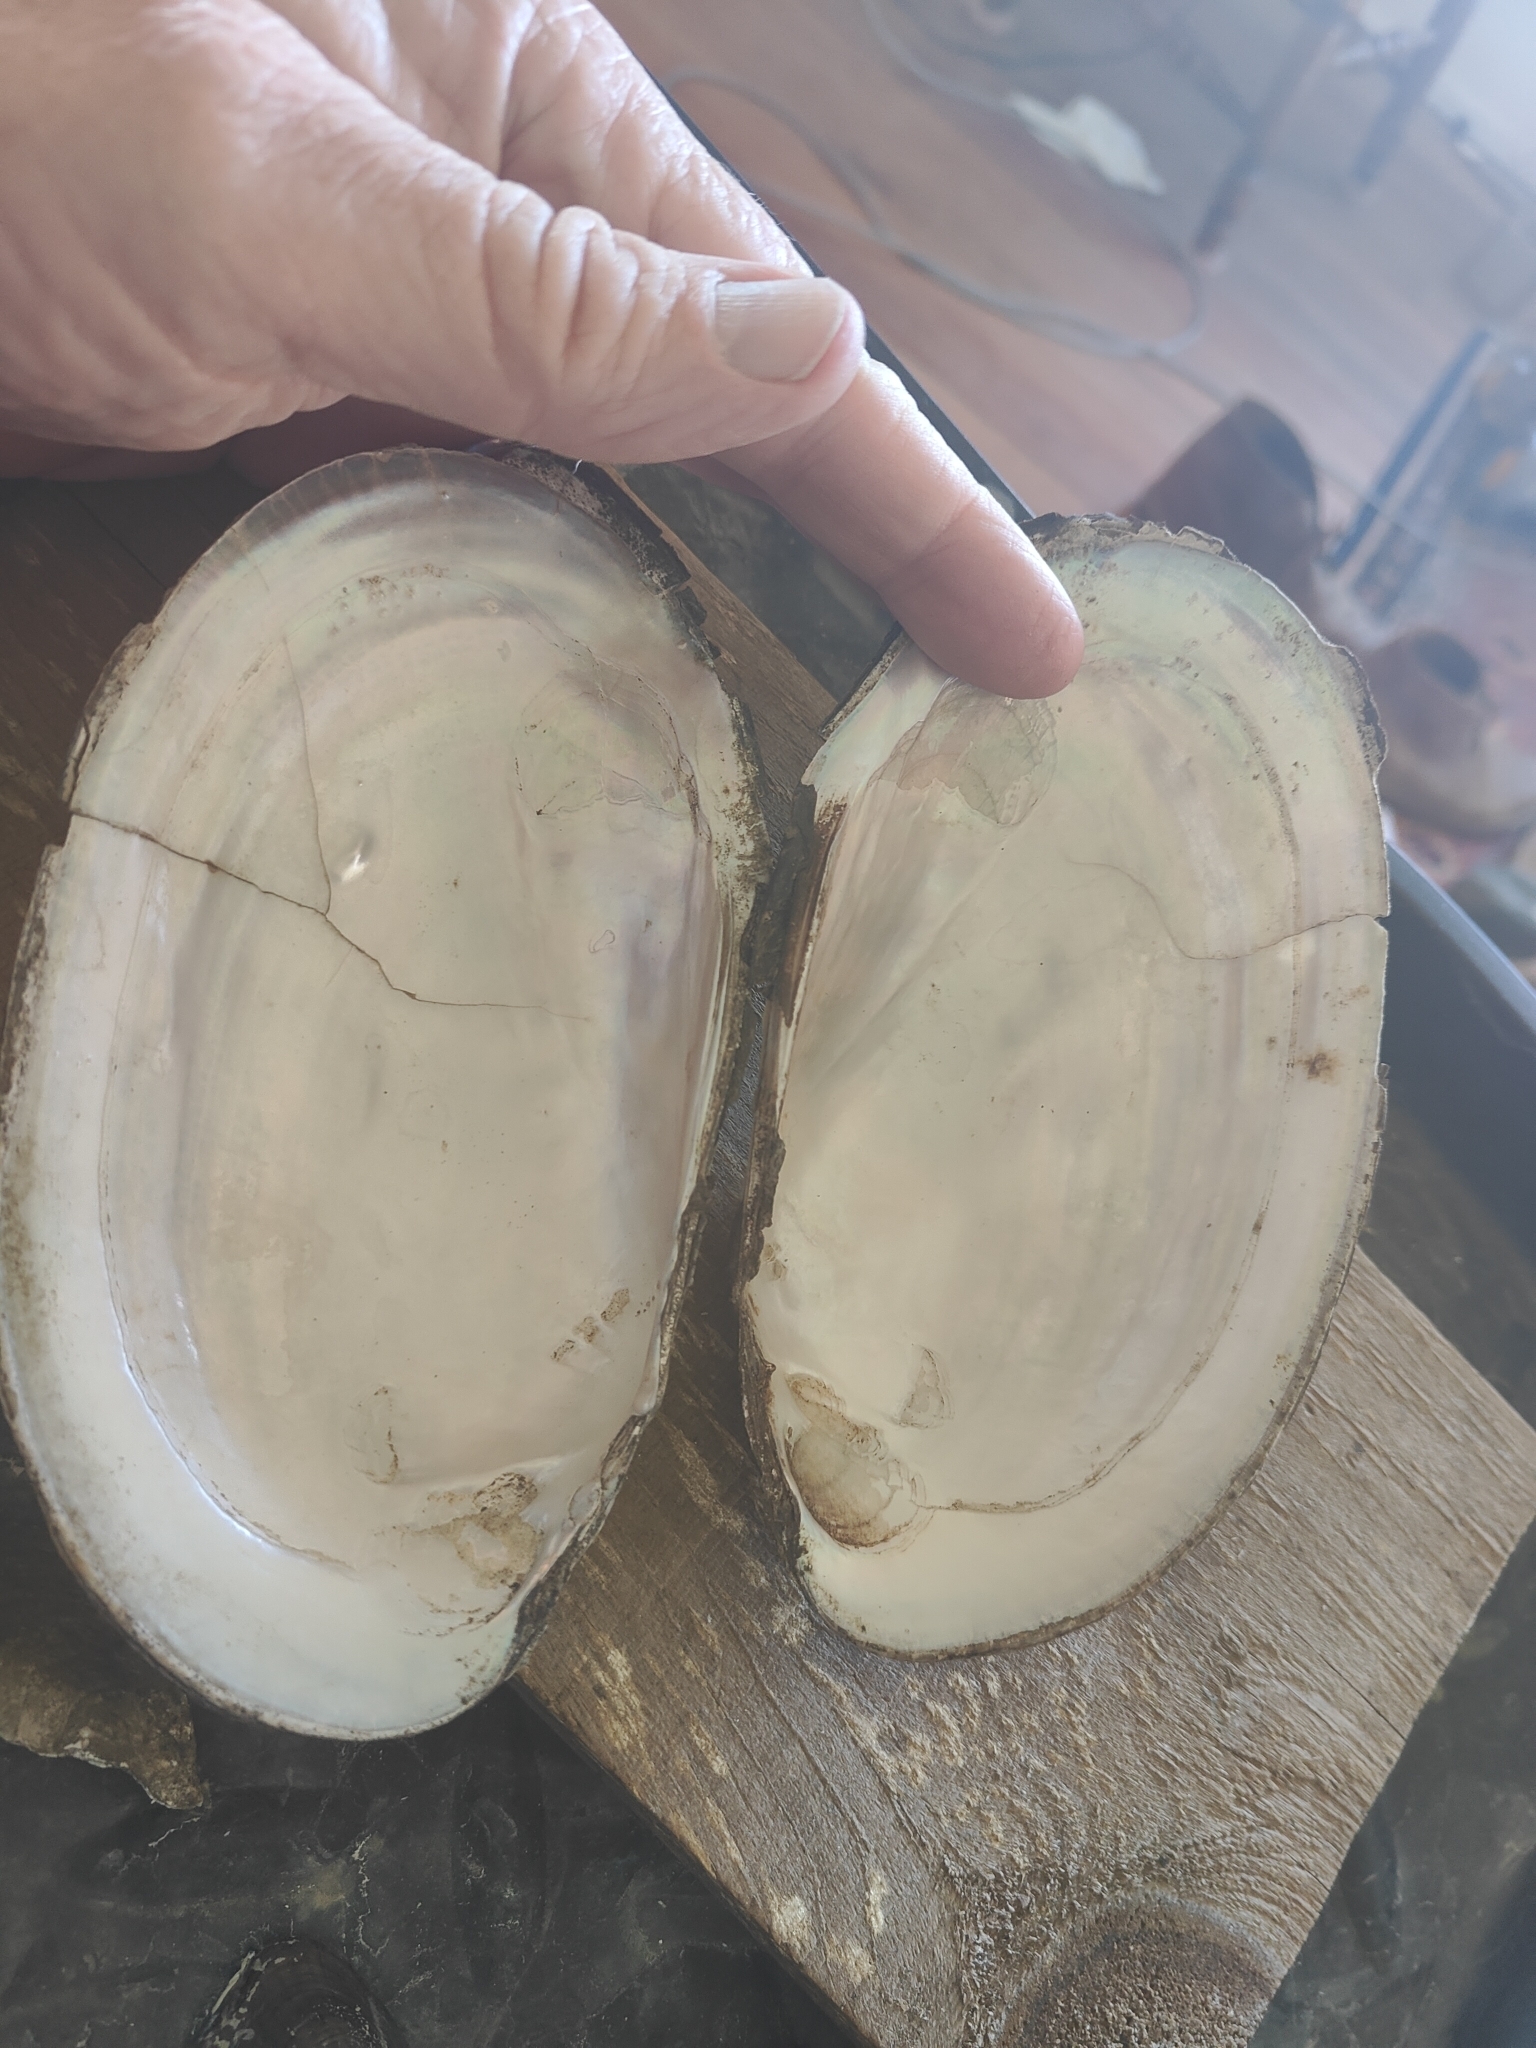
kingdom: Animalia
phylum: Mollusca
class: Bivalvia
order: Unionida
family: Unionidae
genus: Potamilus
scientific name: Potamilus fragilis
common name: Fragile papershell
